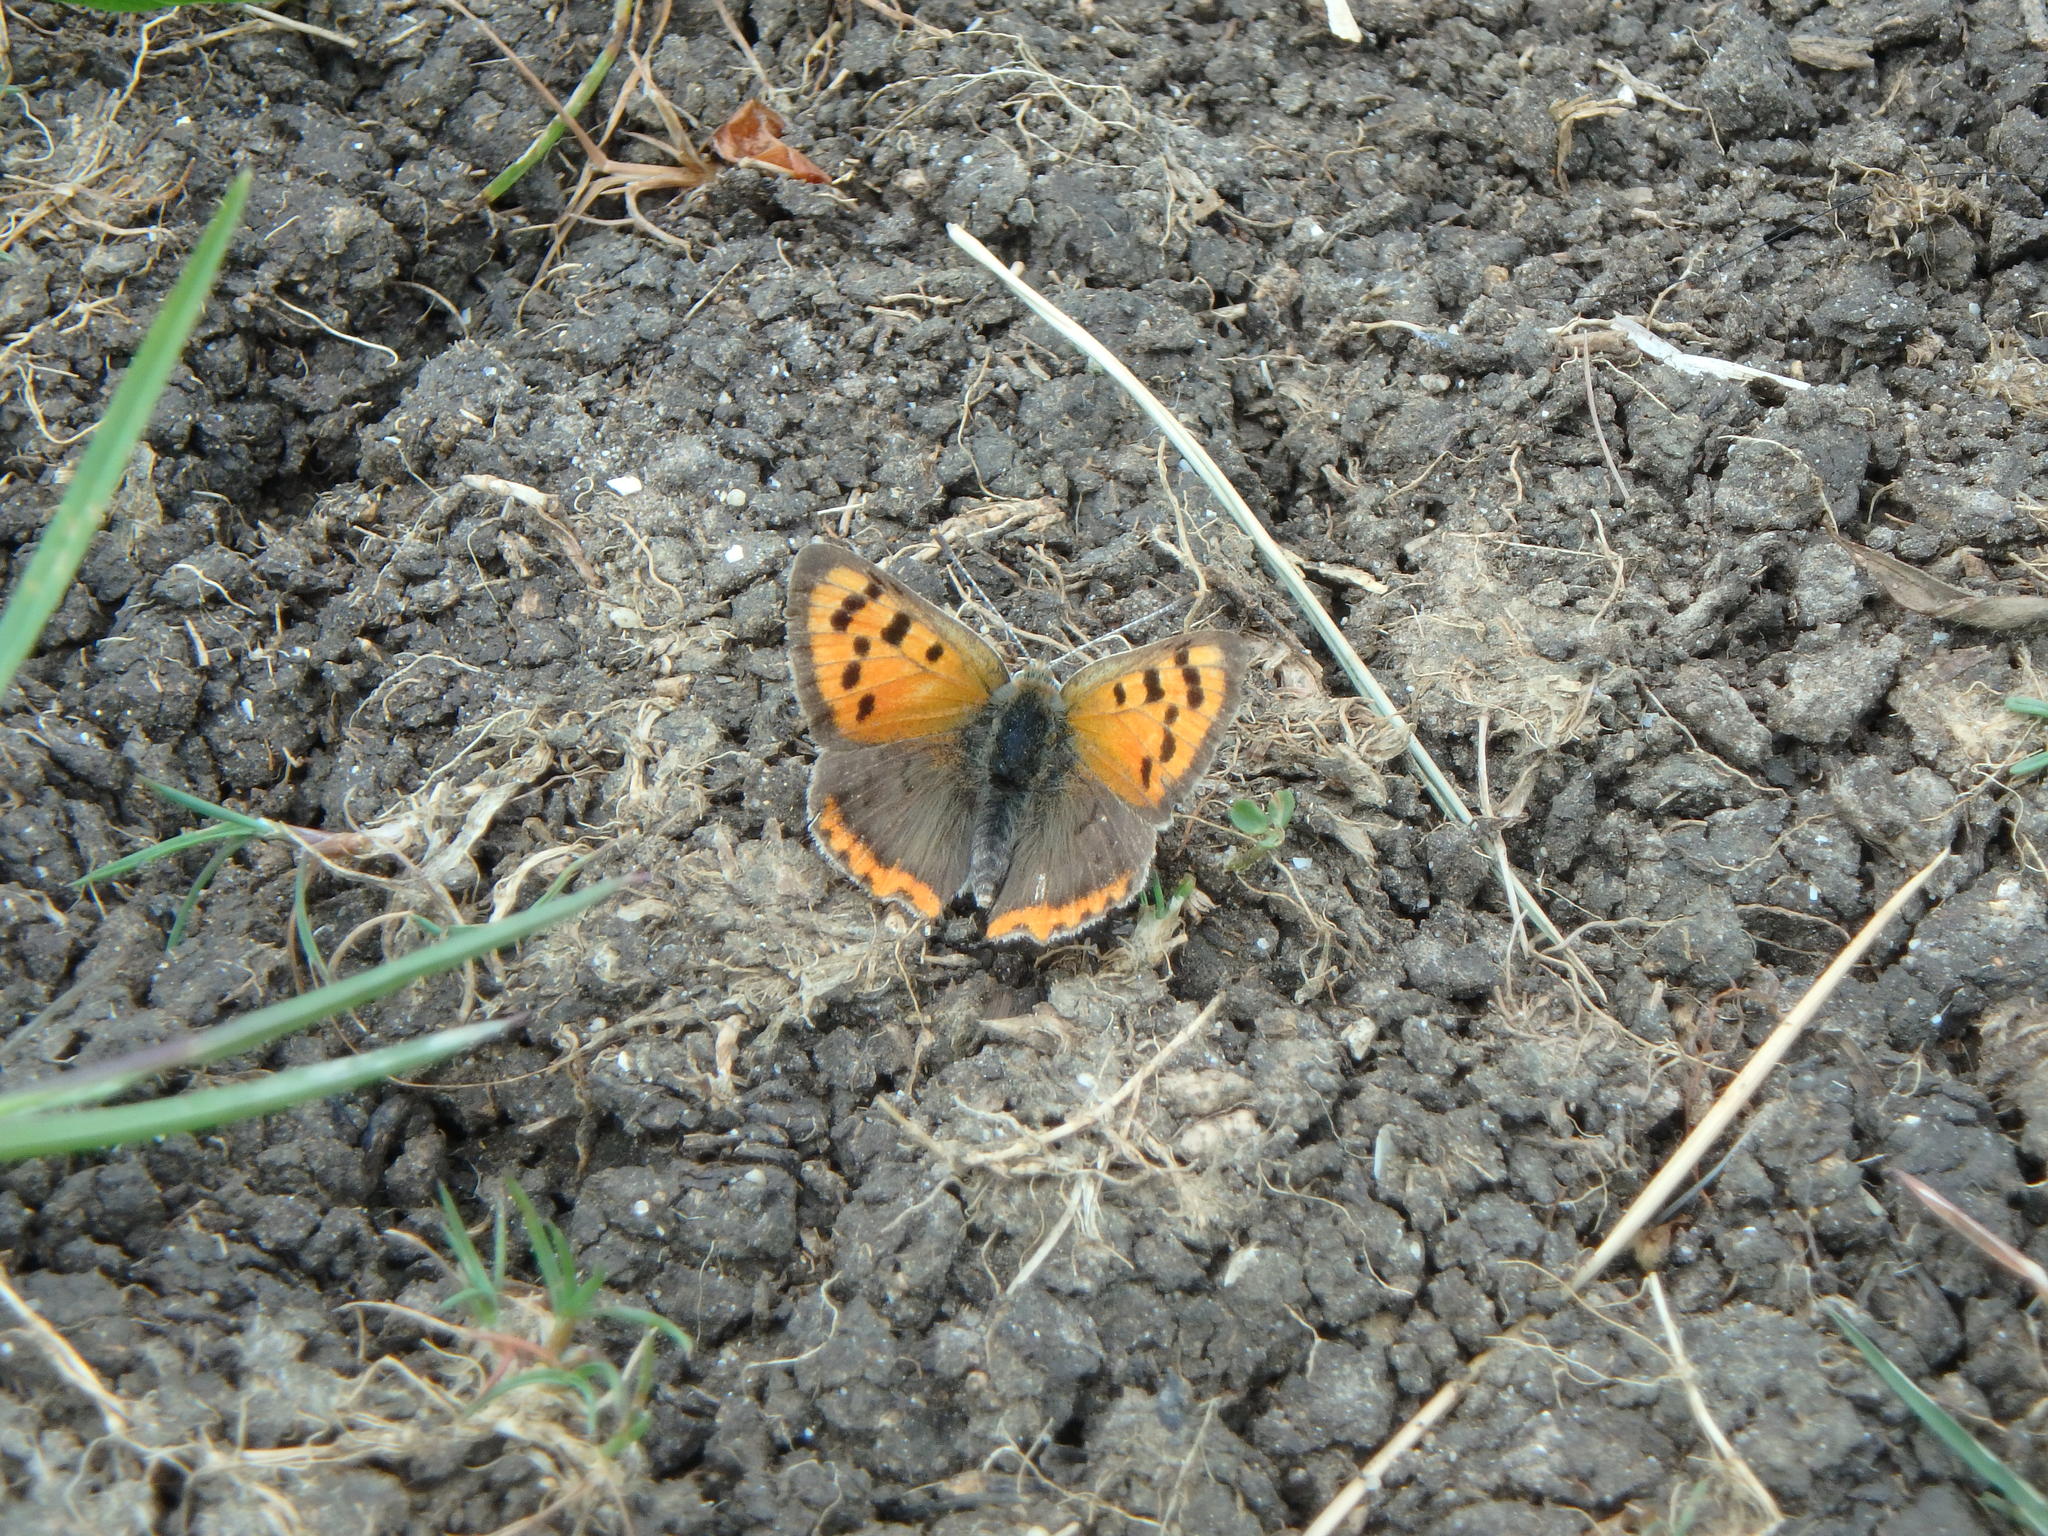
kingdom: Animalia
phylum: Arthropoda
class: Insecta
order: Lepidoptera
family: Lycaenidae
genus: Lycaena
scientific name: Lycaena phlaeas
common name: Small copper
